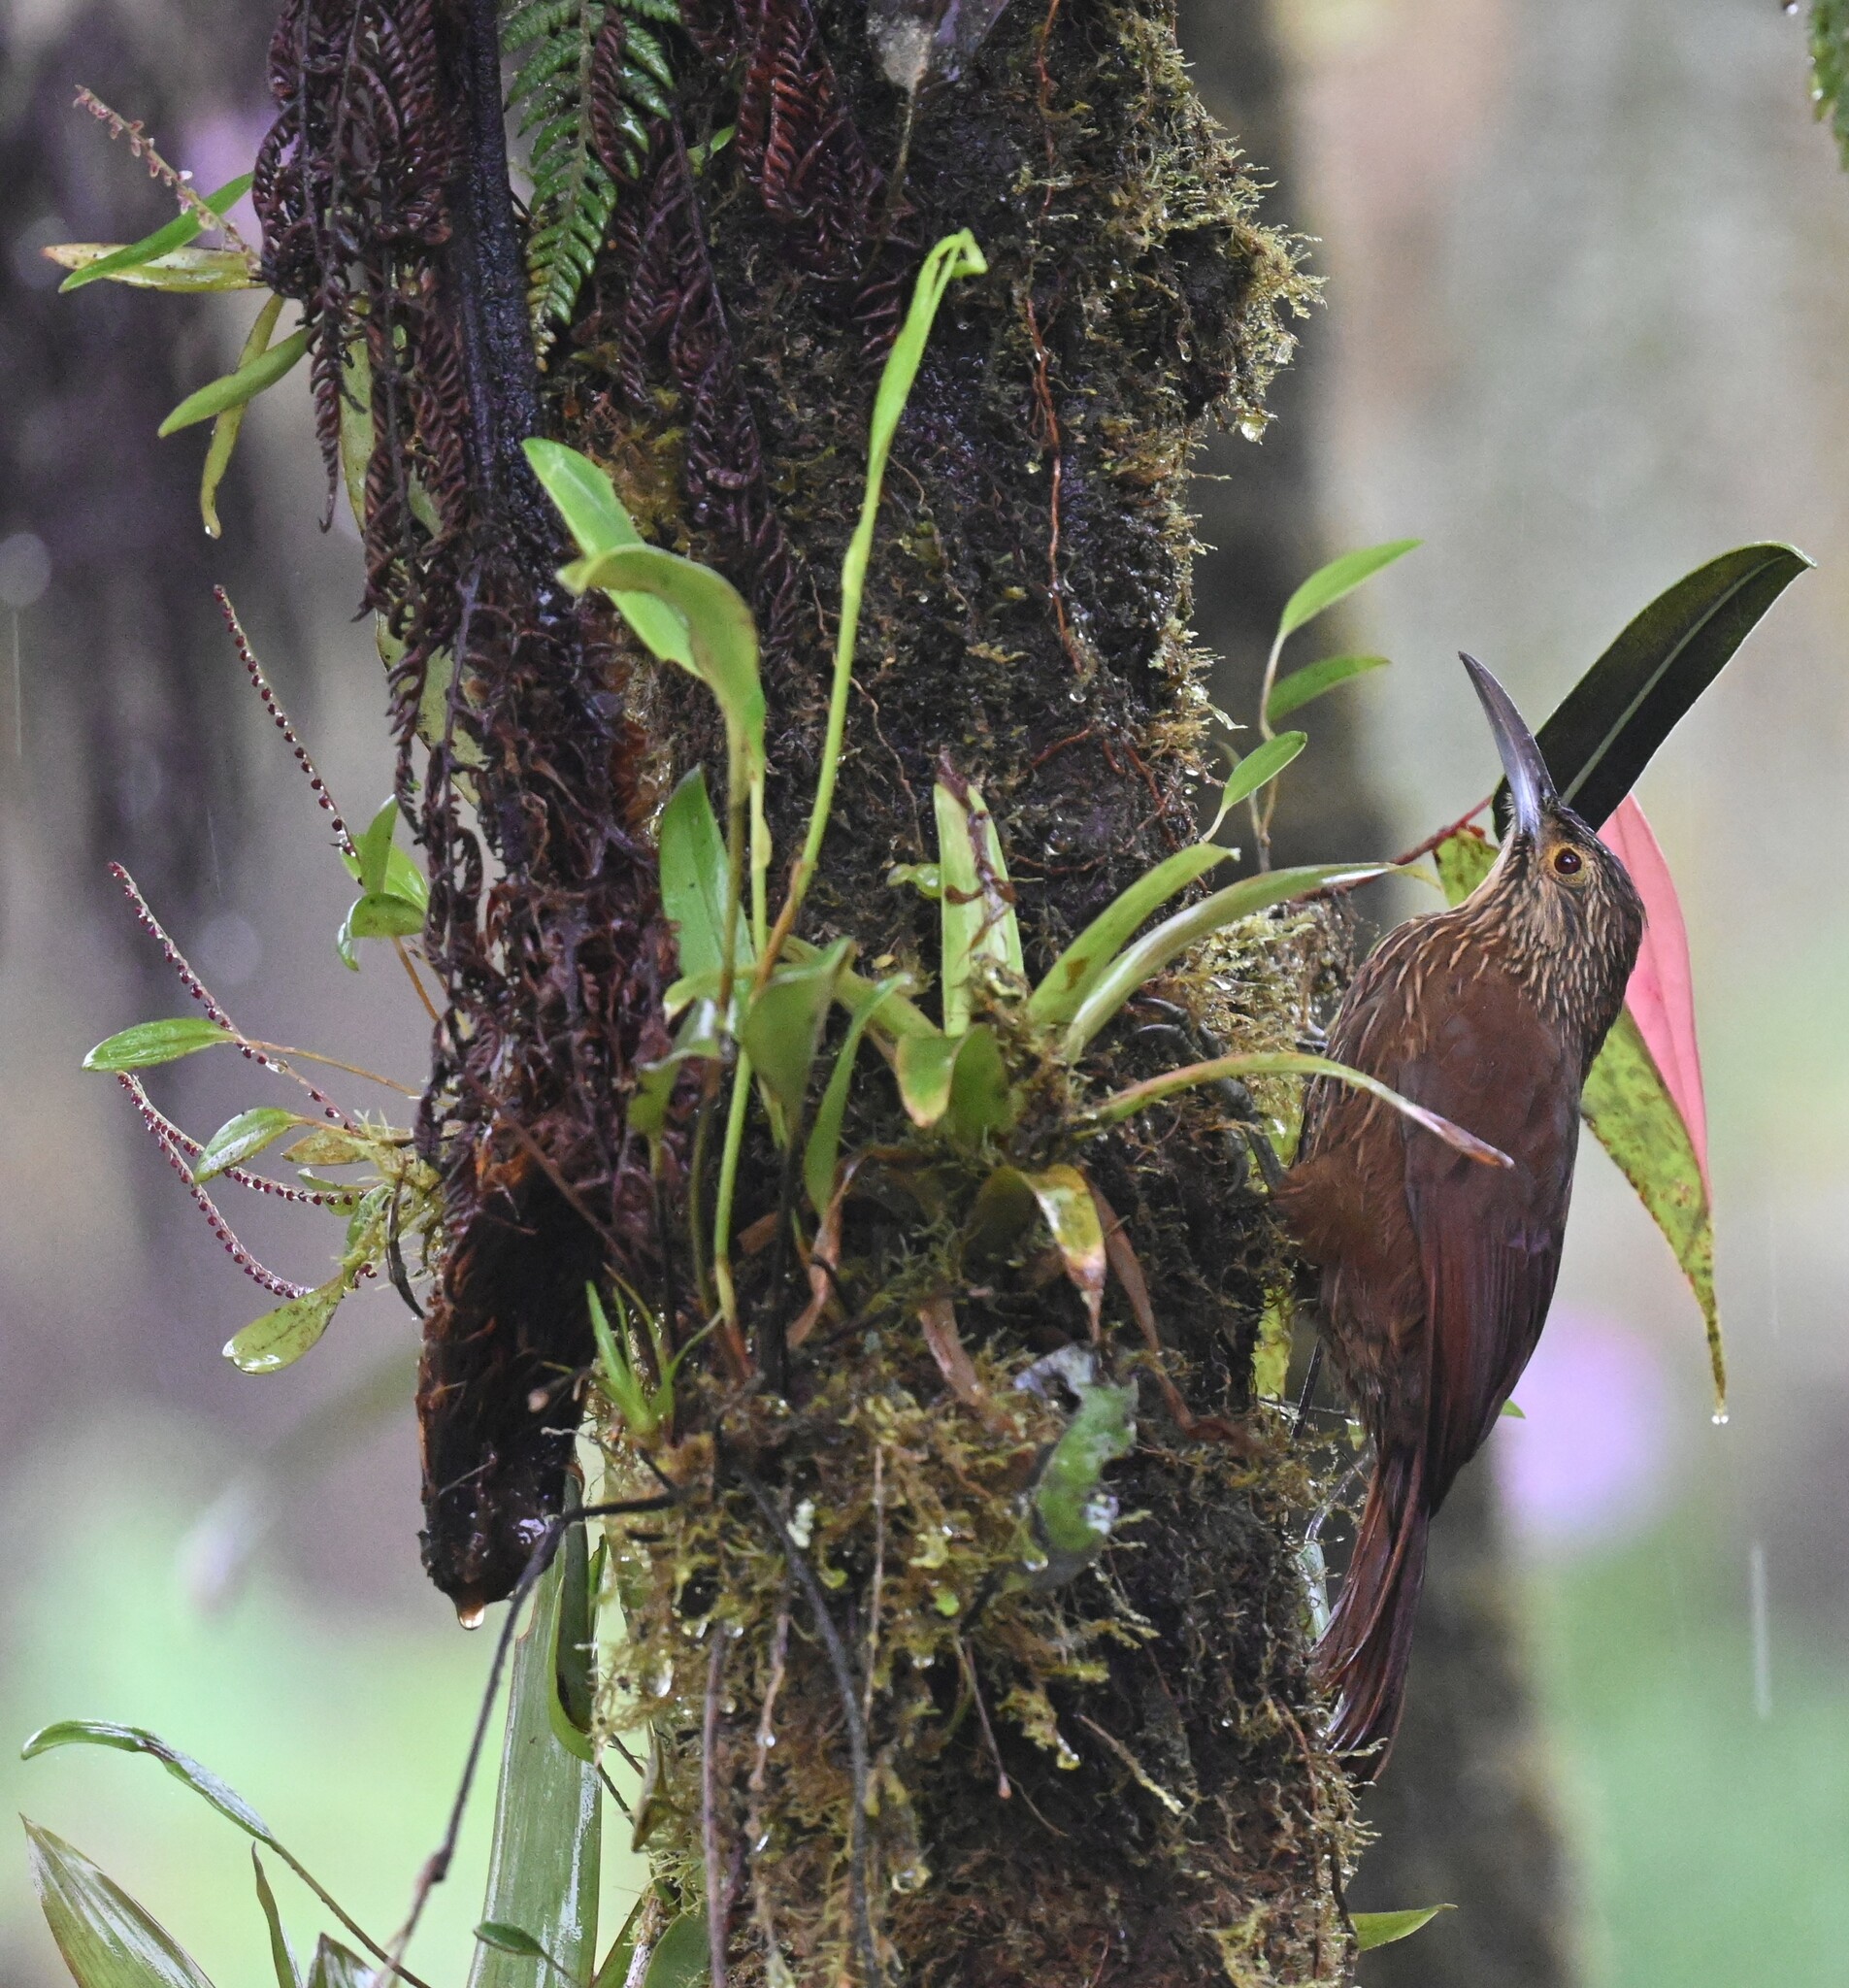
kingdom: Animalia
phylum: Chordata
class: Aves
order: Passeriformes
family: Furnariidae
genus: Xiphocolaptes
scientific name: Xiphocolaptes promeropirhynchus
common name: Strong-billed woodcreeper
